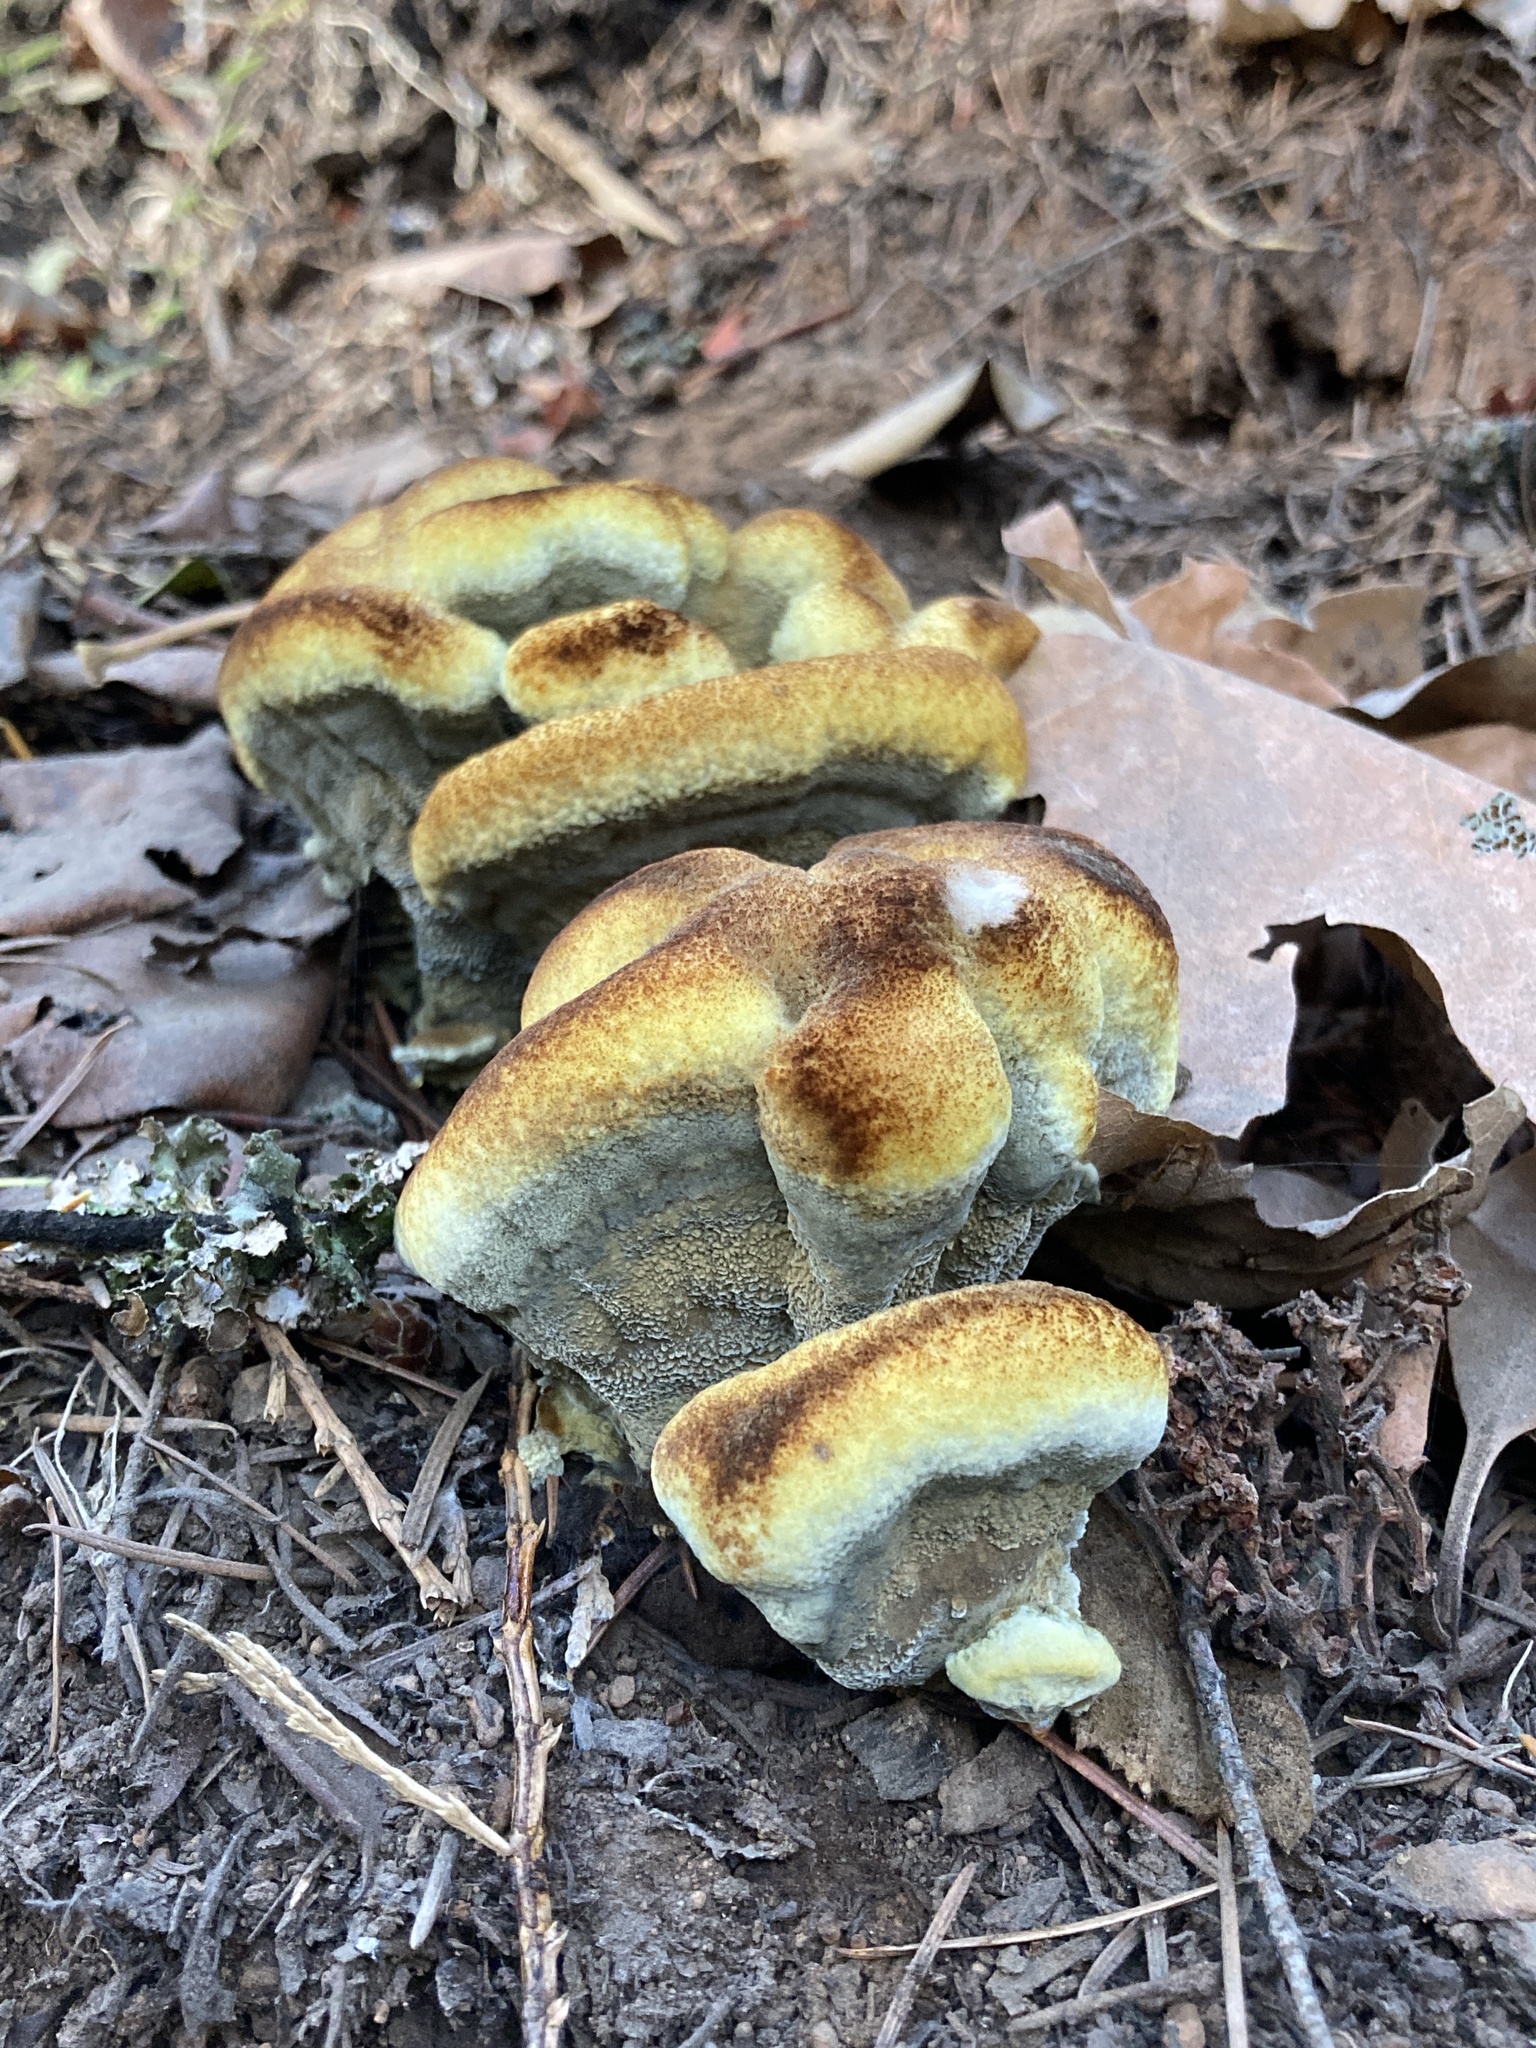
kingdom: Fungi
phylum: Basidiomycota
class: Agaricomycetes
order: Polyporales
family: Laetiporaceae
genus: Phaeolus
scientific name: Phaeolus schweinitzii
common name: Dyer's mazegill
